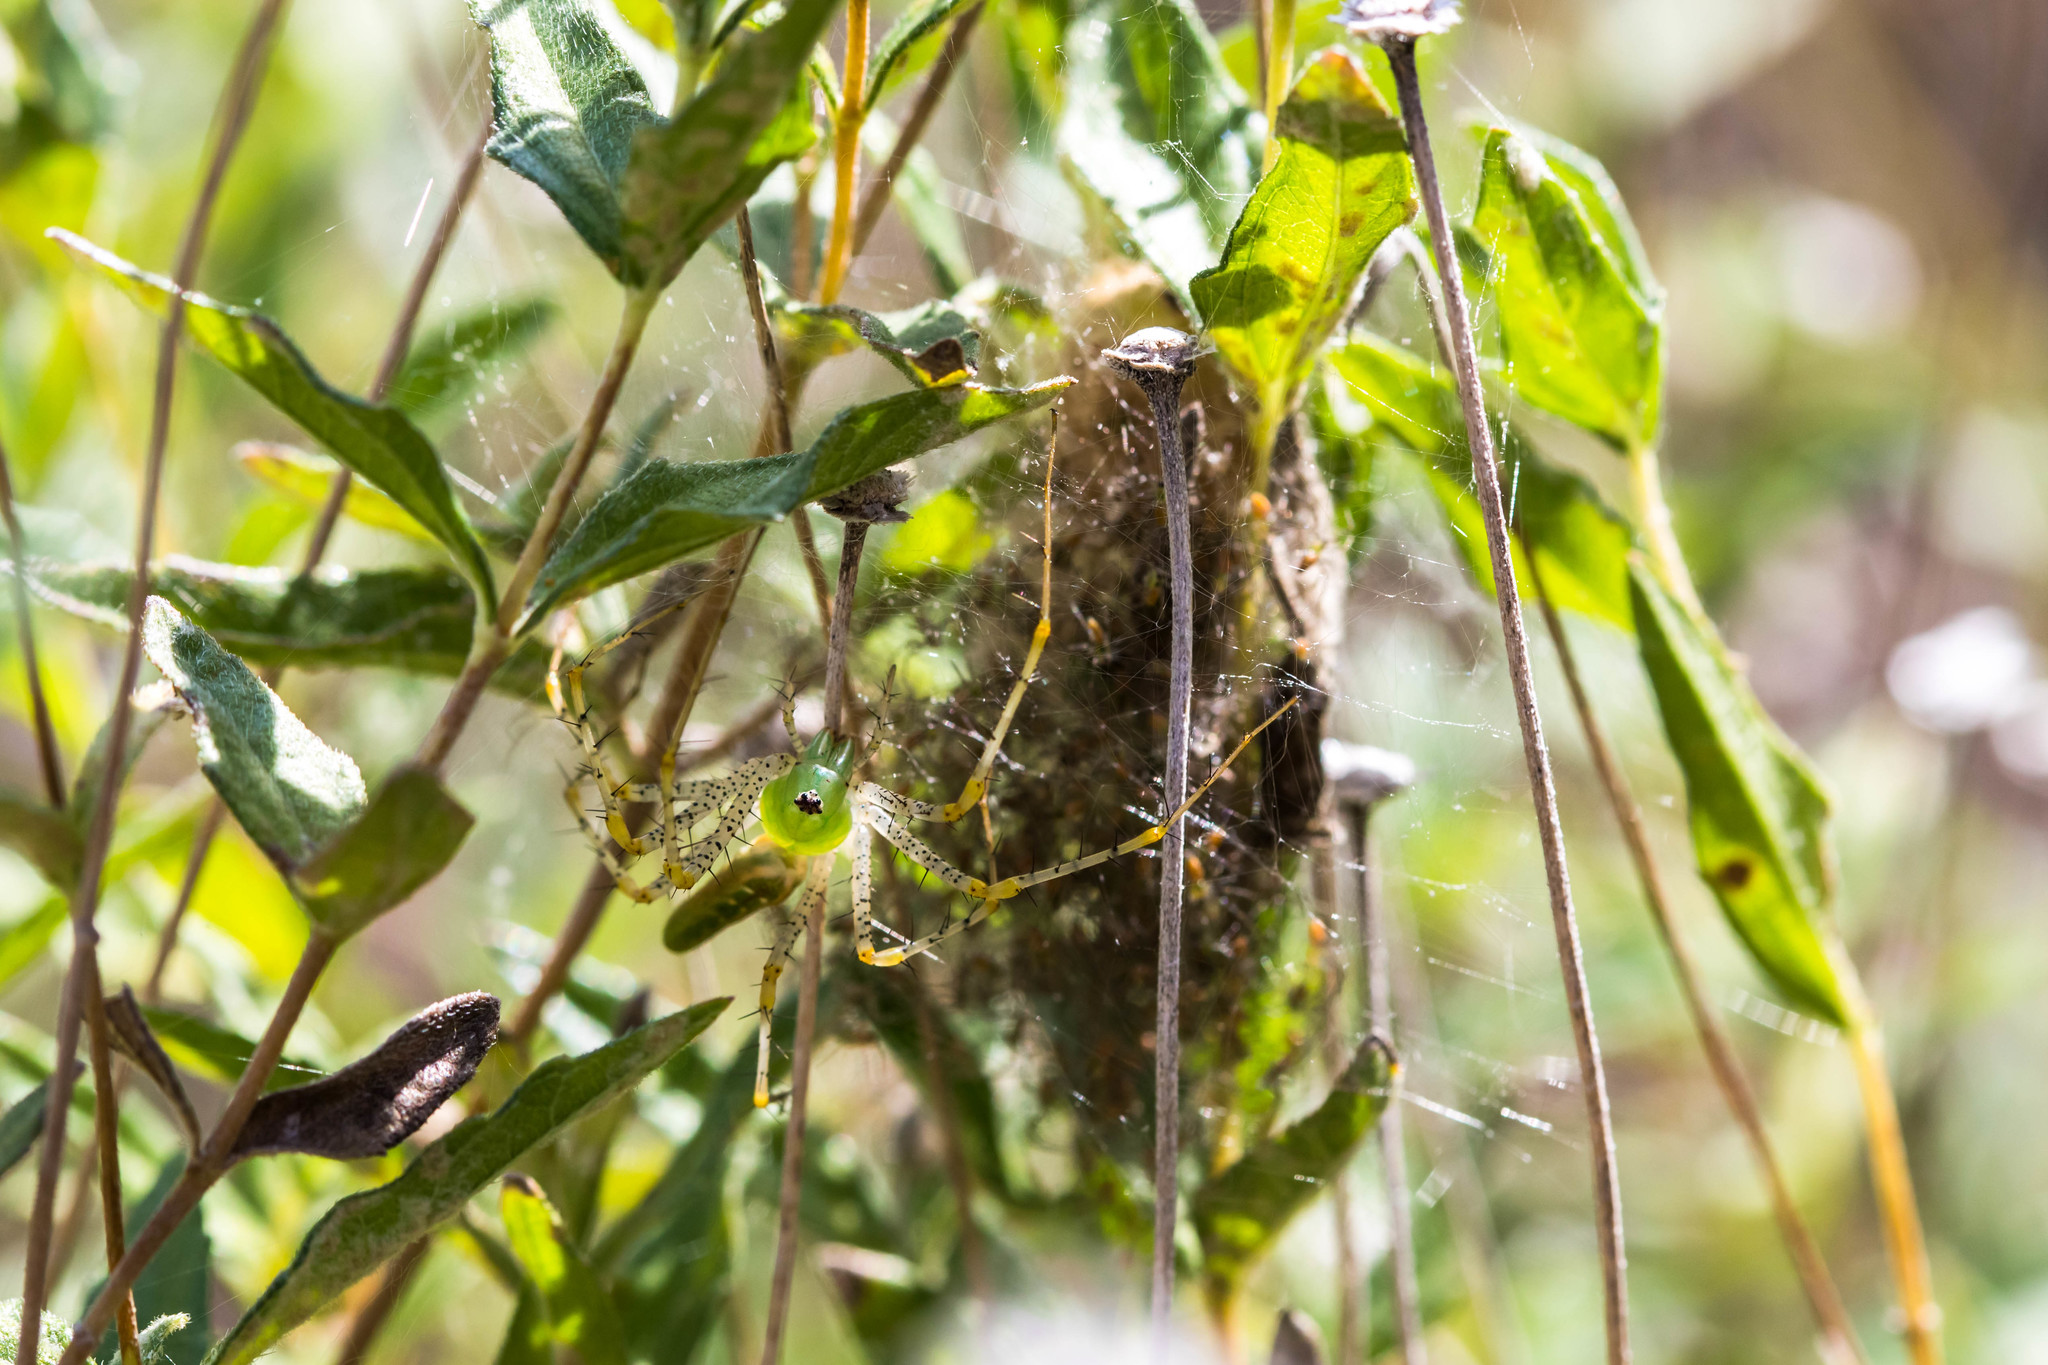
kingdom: Animalia
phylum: Arthropoda
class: Arachnida
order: Araneae
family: Oxyopidae
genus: Peucetia
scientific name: Peucetia viridans
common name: Lynx spiders
